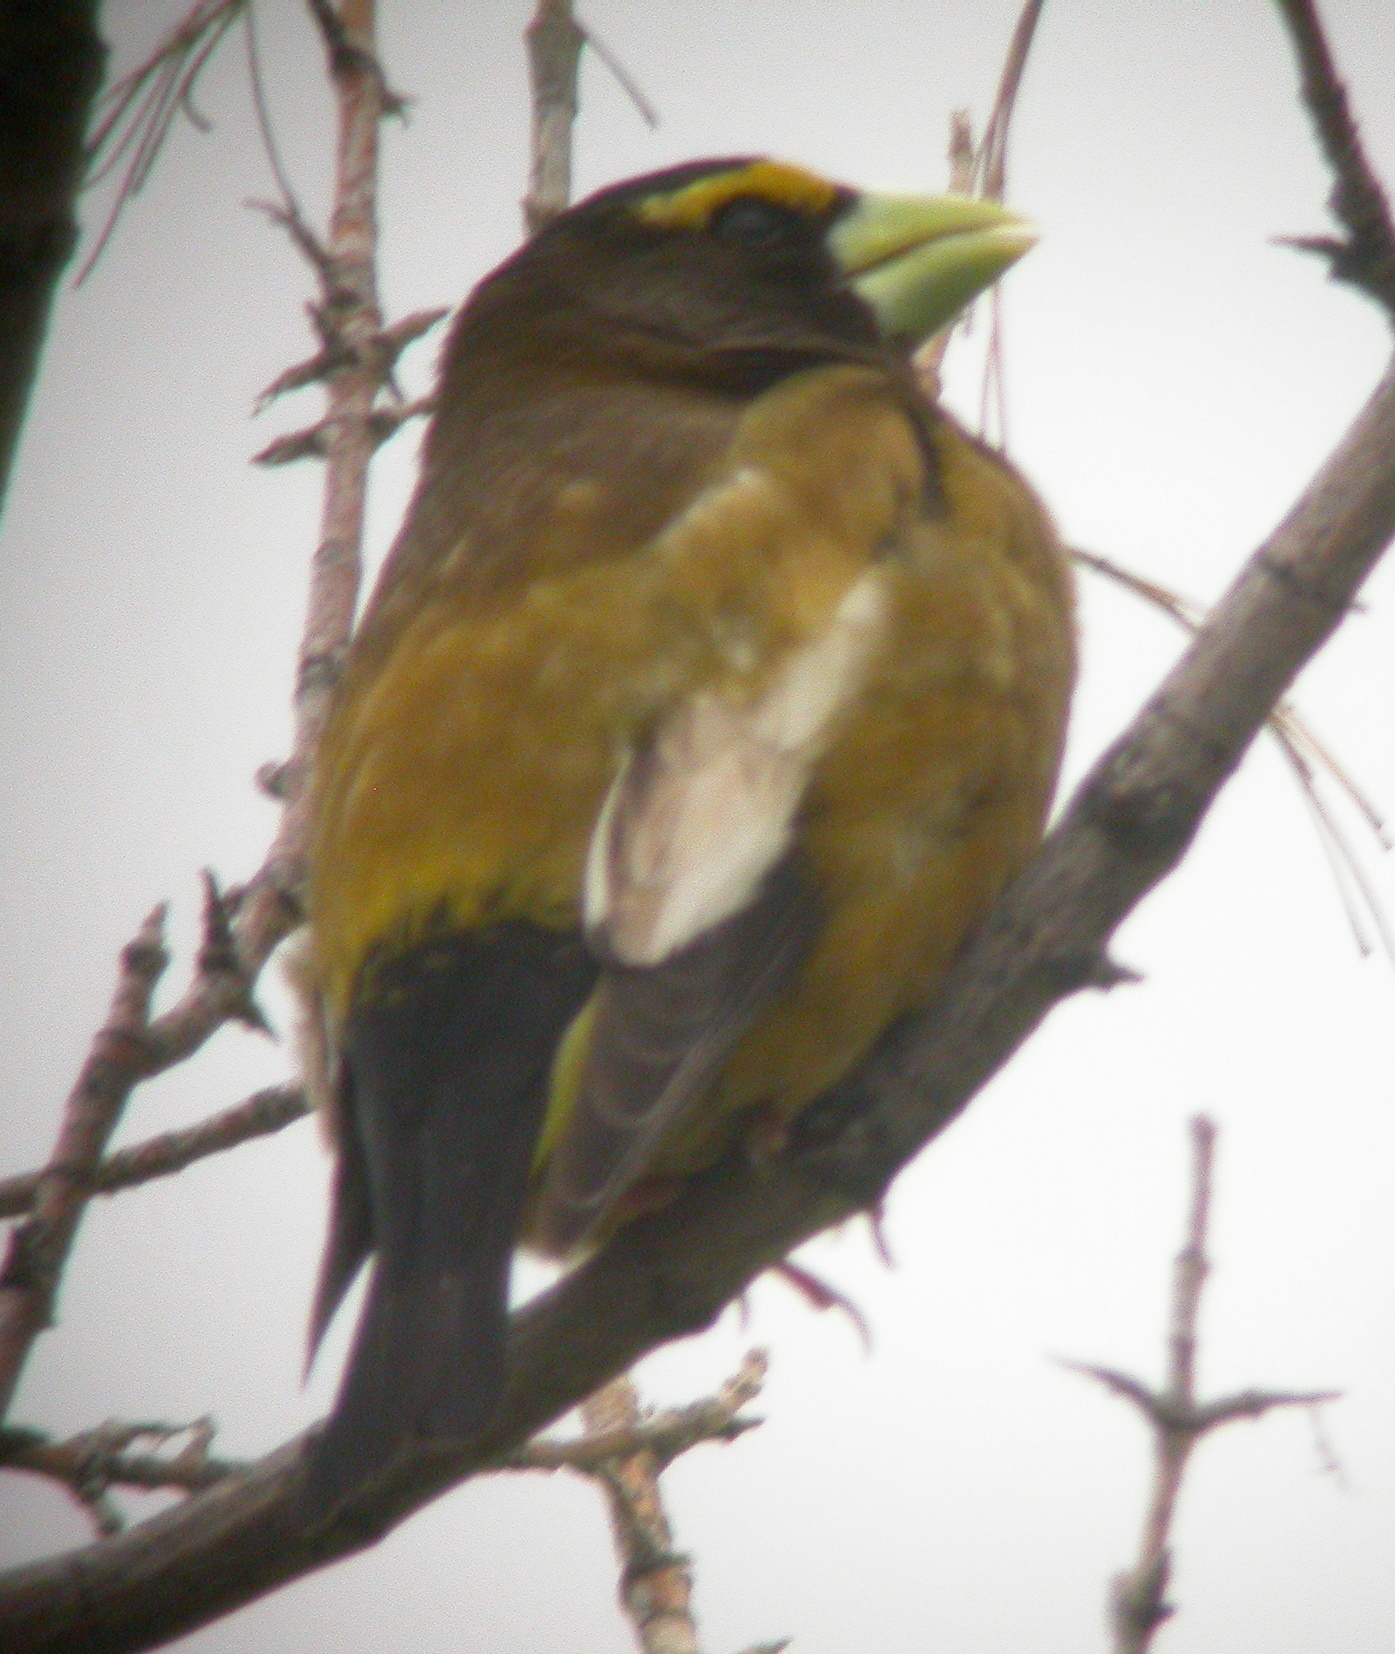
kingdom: Animalia
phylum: Chordata
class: Aves
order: Passeriformes
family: Fringillidae
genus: Hesperiphona
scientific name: Hesperiphona vespertina
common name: Evening grosbeak
